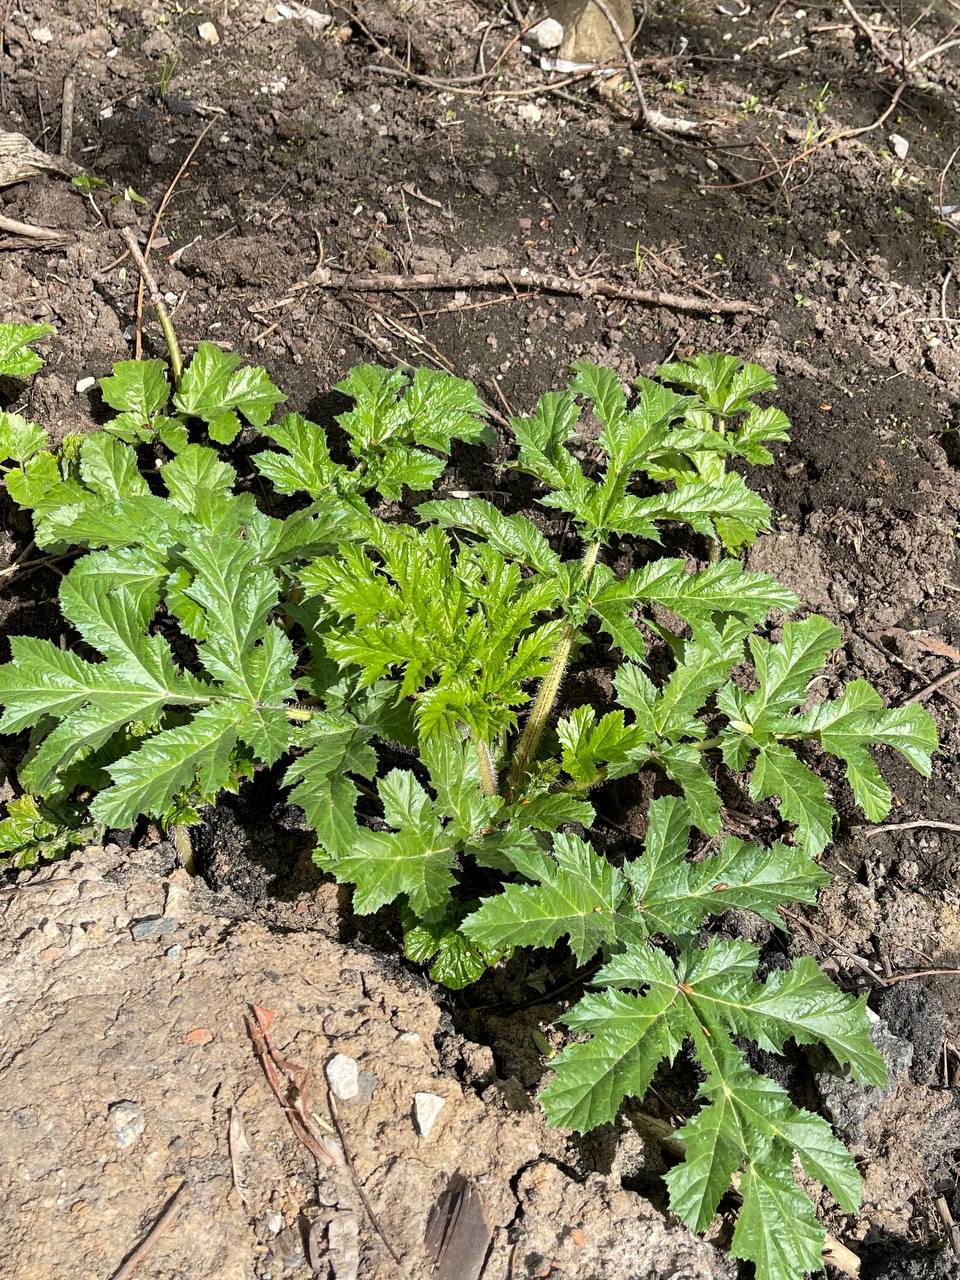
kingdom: Plantae
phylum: Tracheophyta
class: Magnoliopsida
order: Apiales
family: Apiaceae
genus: Heracleum
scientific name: Heracleum sosnowskyi
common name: Sosnowsky's hogweed
